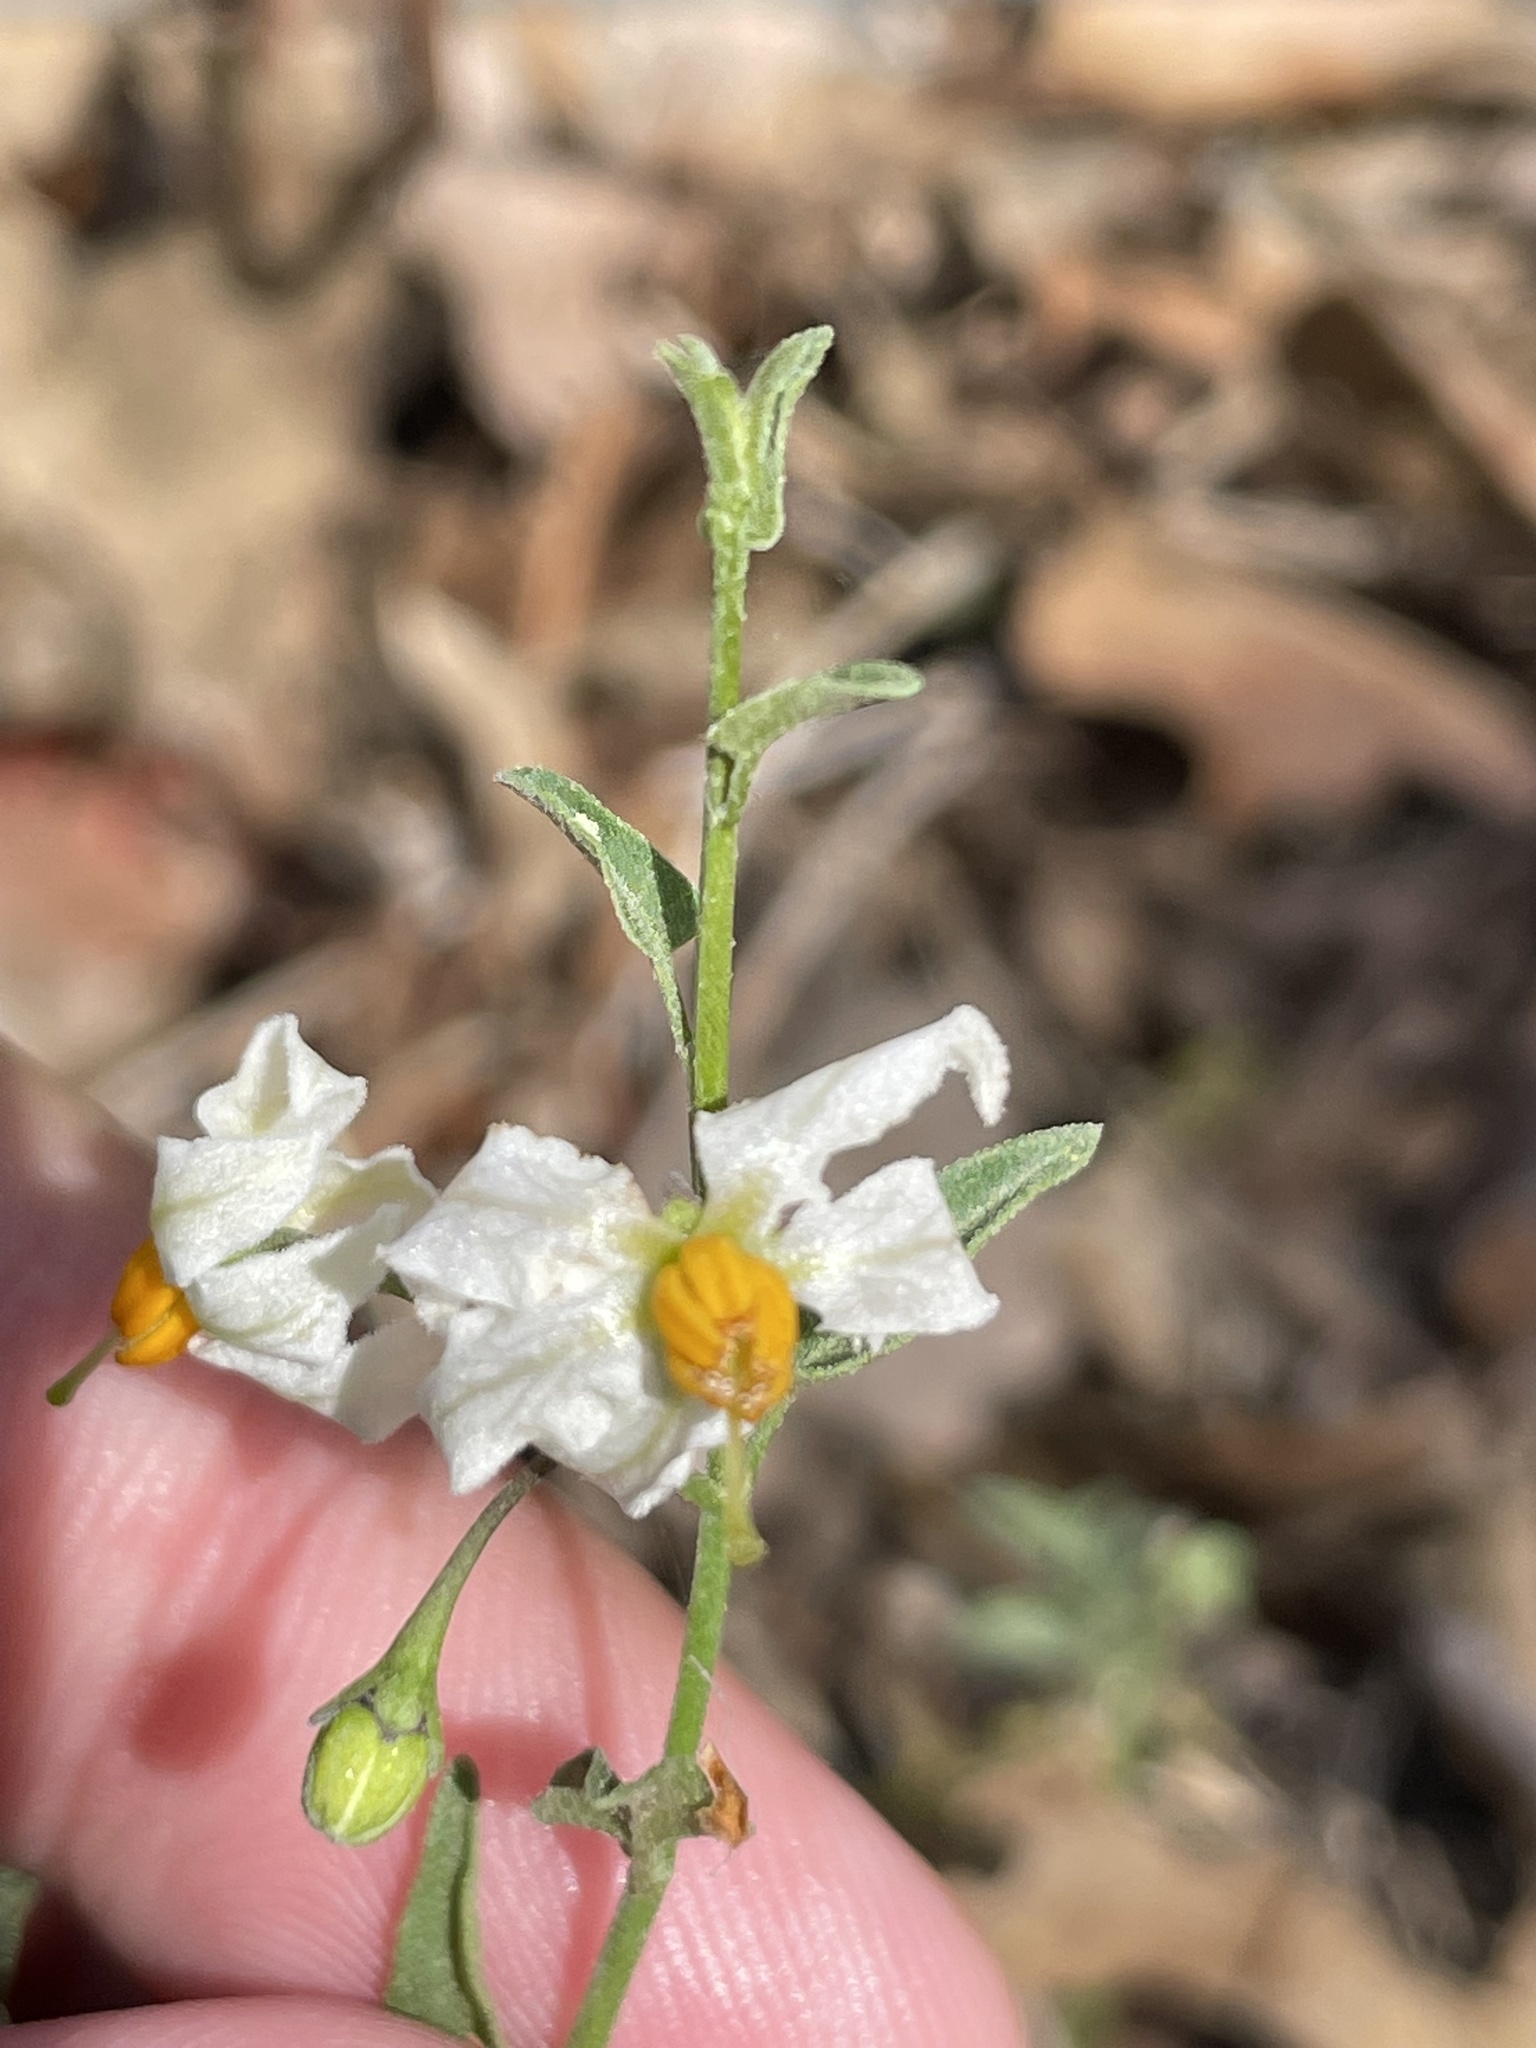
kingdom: Plantae
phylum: Tracheophyta
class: Magnoliopsida
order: Solanales
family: Solanaceae
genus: Solanum
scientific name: Solanum triquetrum
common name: Texas nightshade
